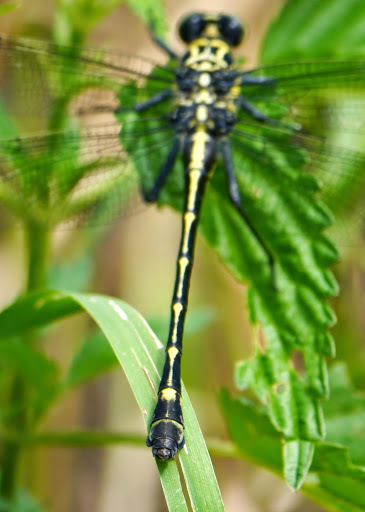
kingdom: Animalia
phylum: Arthropoda
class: Insecta
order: Odonata
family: Gomphidae
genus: Hagenius
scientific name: Hagenius brevistylus
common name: Dragonhunter
